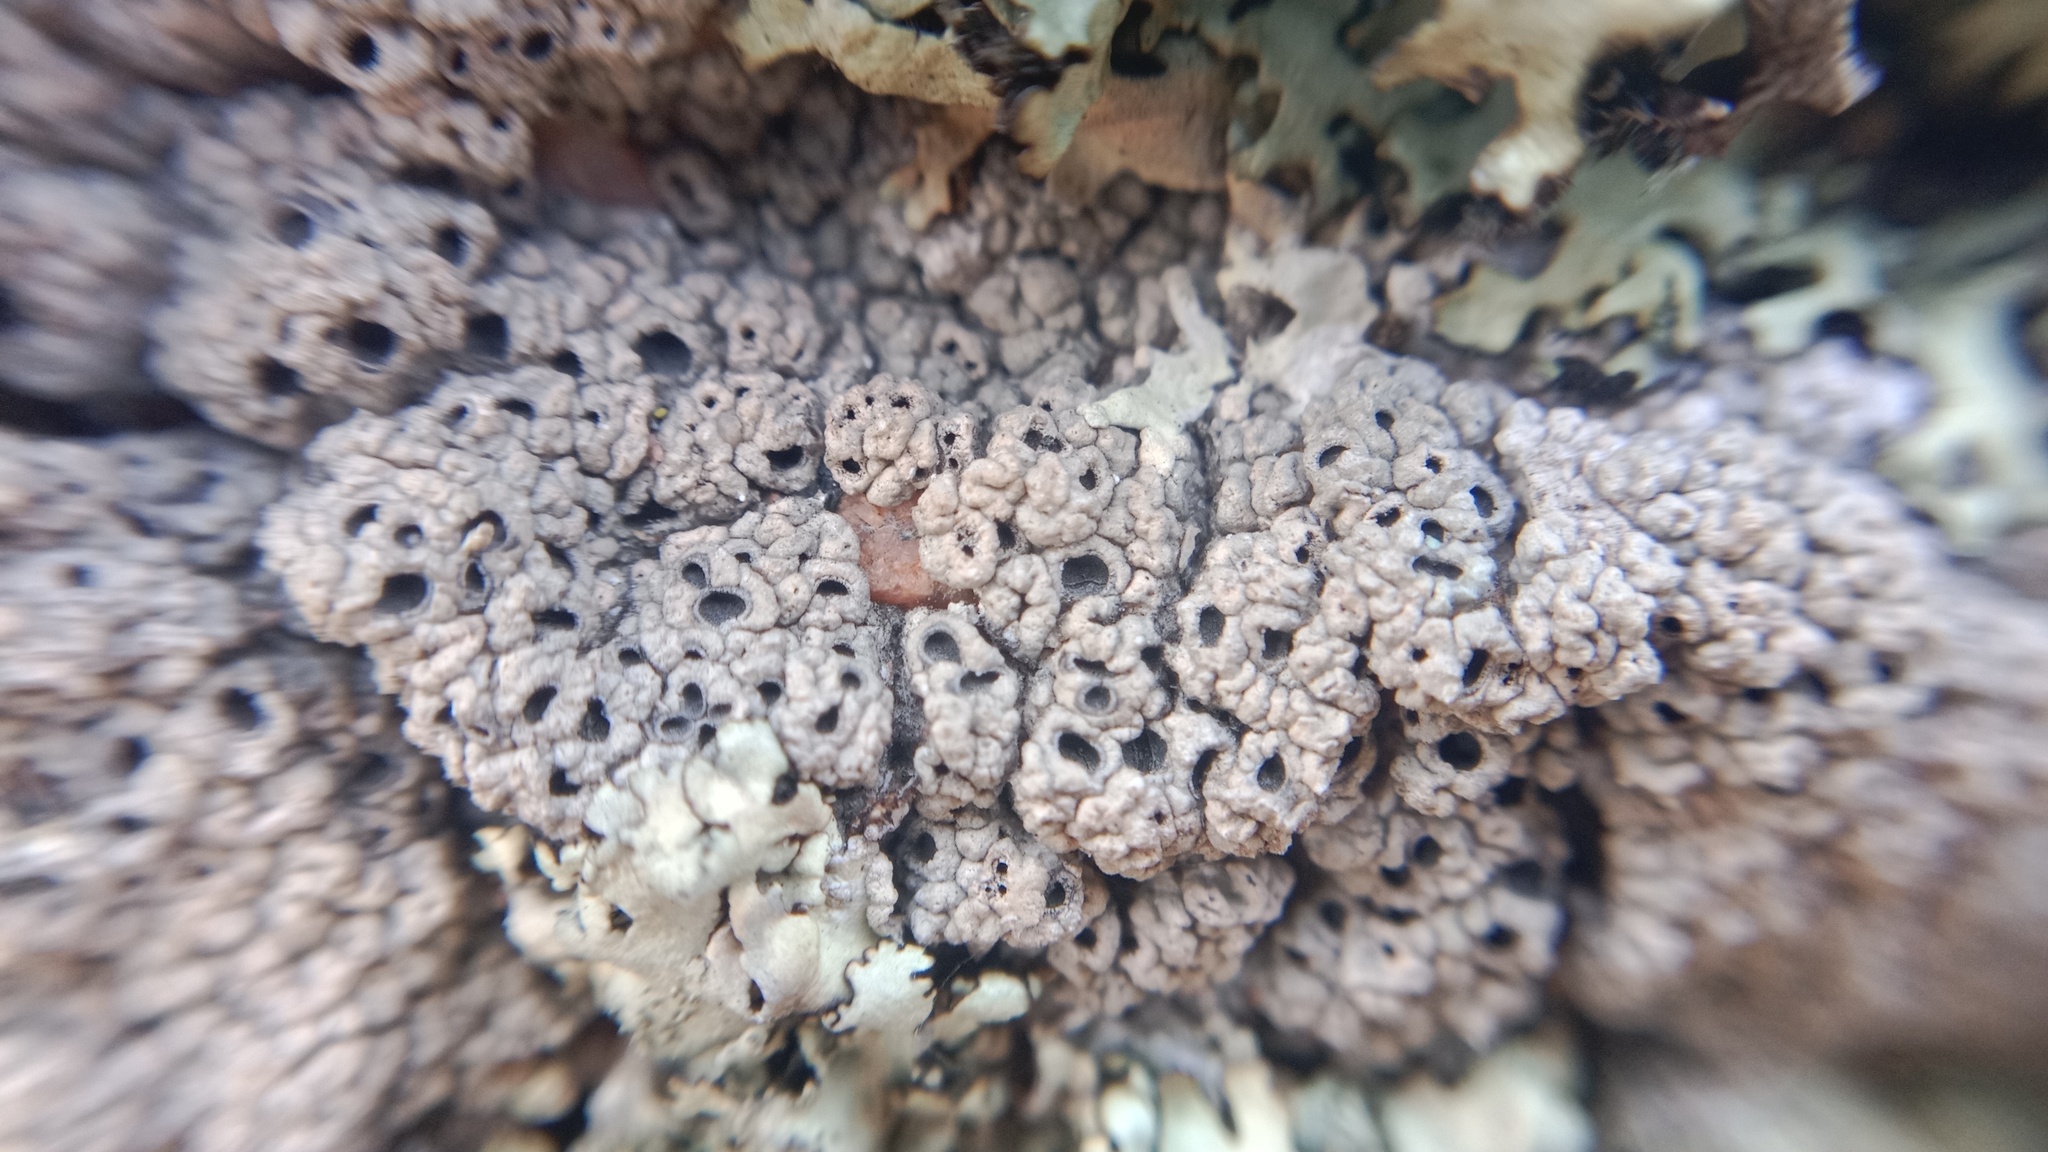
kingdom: Fungi
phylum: Ascomycota
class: Lecanoromycetes
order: Ostropales
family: Graphidaceae
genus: Diploschistes
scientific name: Diploschistes scruposus
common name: Crater lichen
